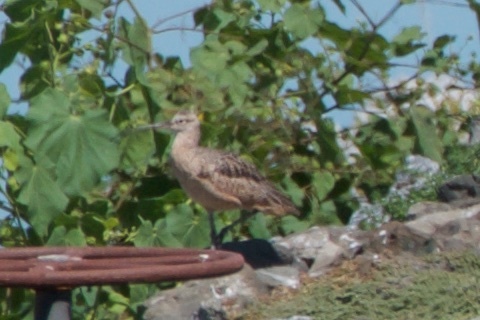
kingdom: Animalia
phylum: Chordata
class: Aves
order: Charadriiformes
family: Scolopacidae
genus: Numenius
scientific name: Numenius americanus
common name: Long-billed curlew
